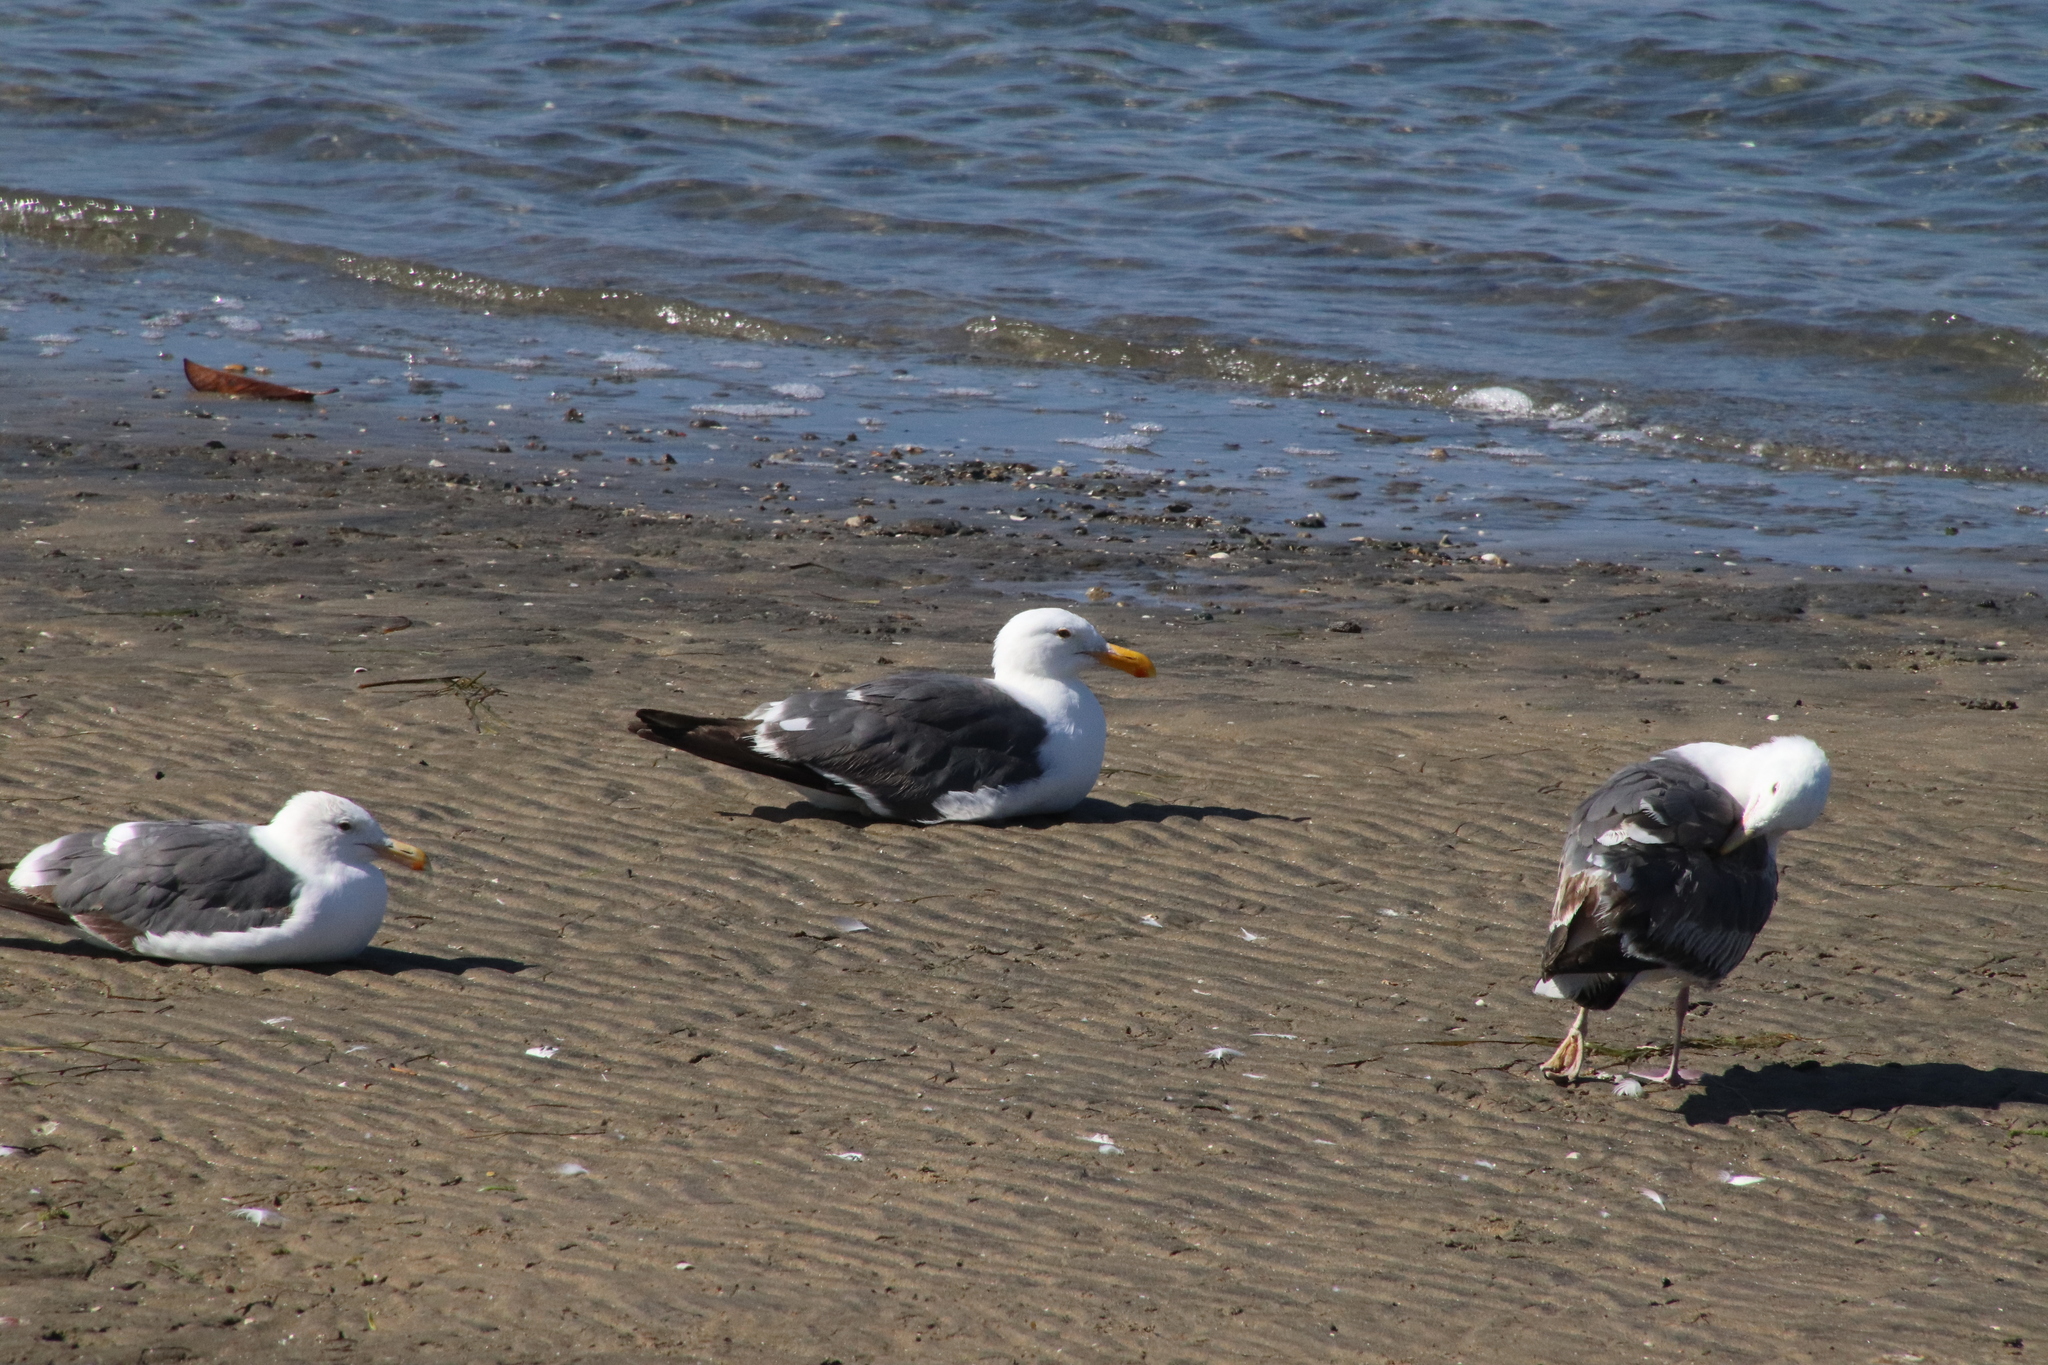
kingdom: Animalia
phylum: Chordata
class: Aves
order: Charadriiformes
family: Laridae
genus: Larus
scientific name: Larus occidentalis
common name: Western gull
